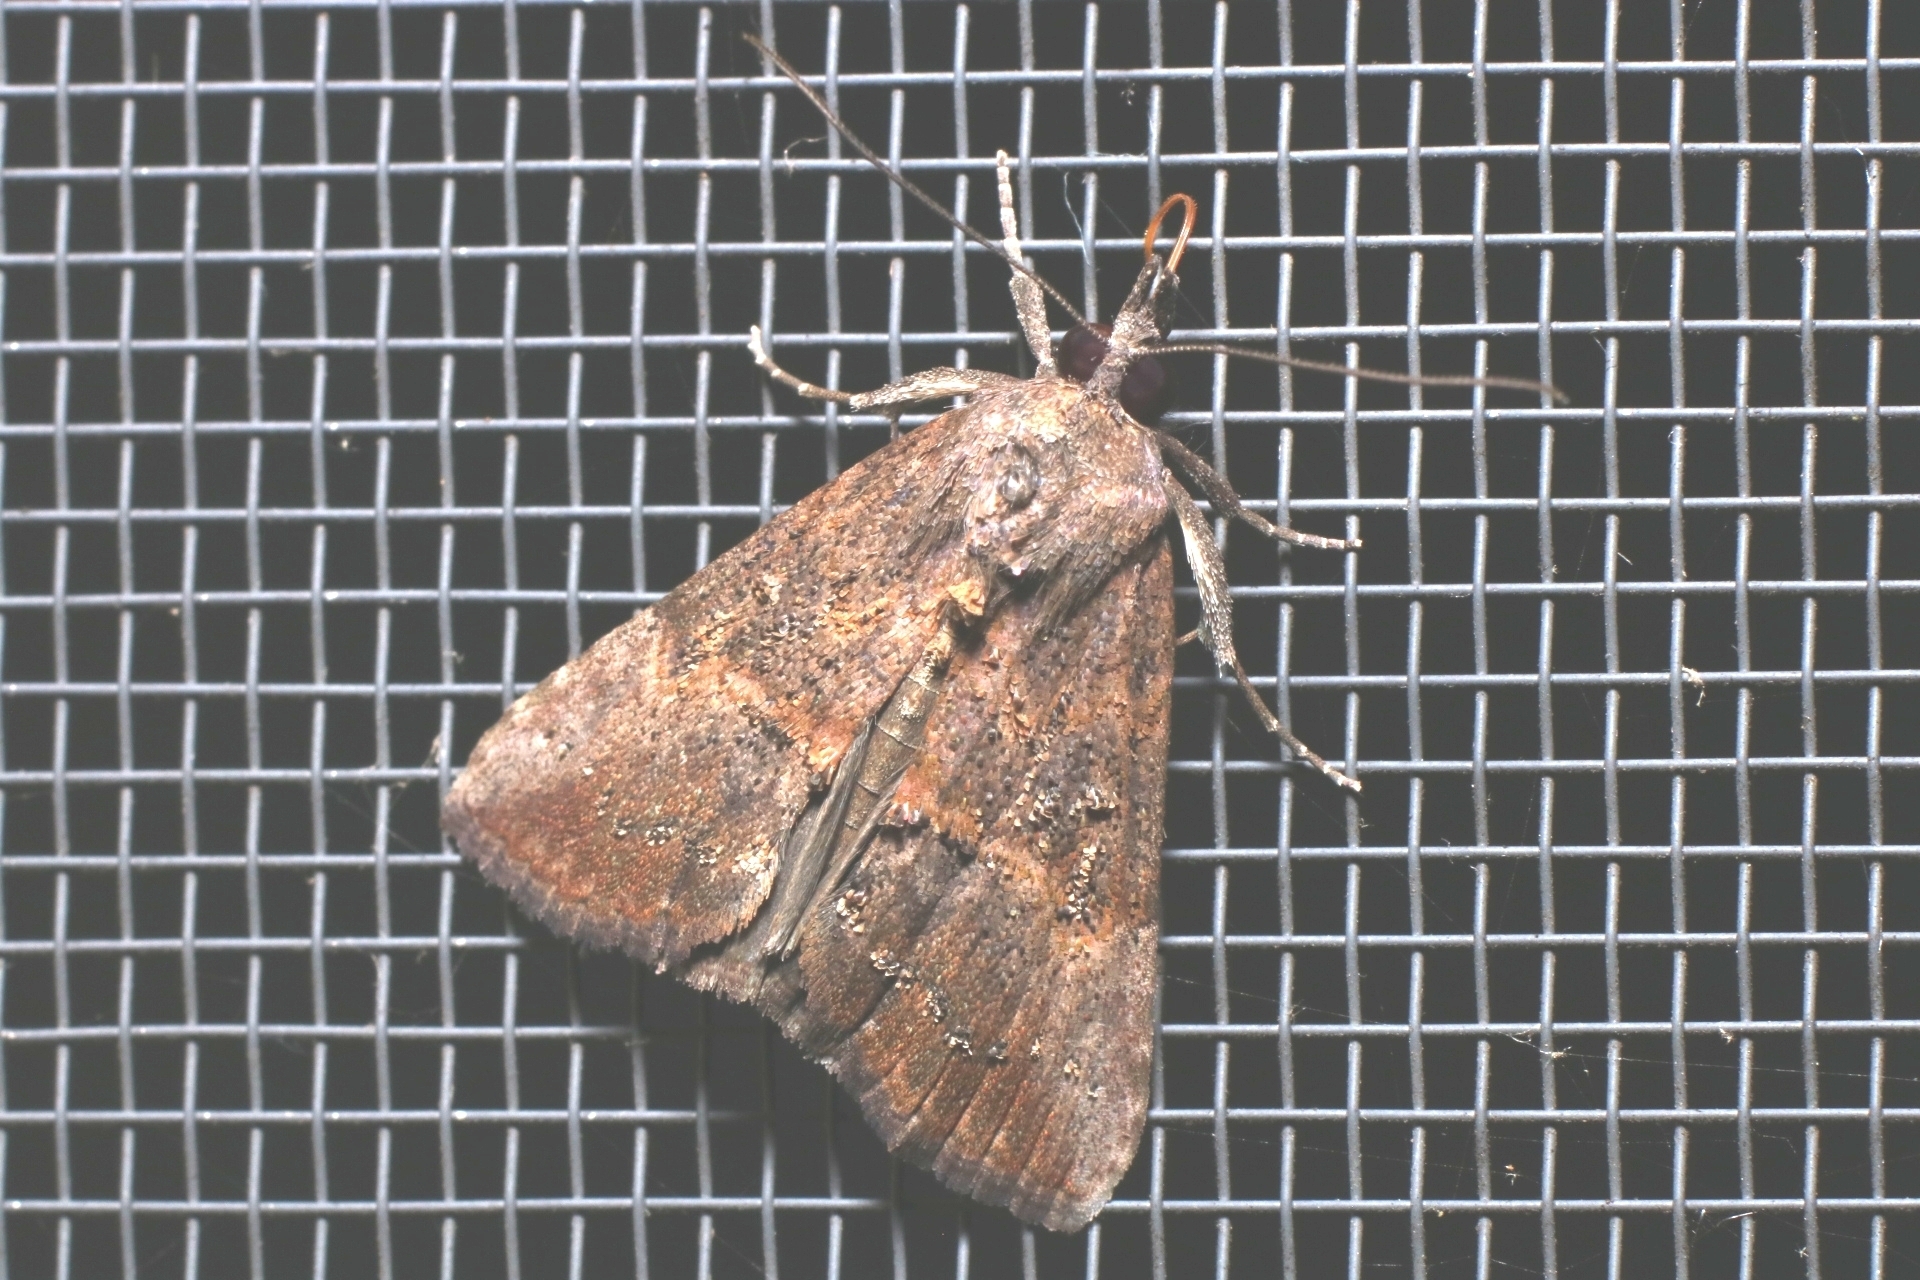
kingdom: Animalia
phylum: Arthropoda
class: Insecta
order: Lepidoptera
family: Erebidae
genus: Hypena
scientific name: Hypena scabra
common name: Green cloverworm
